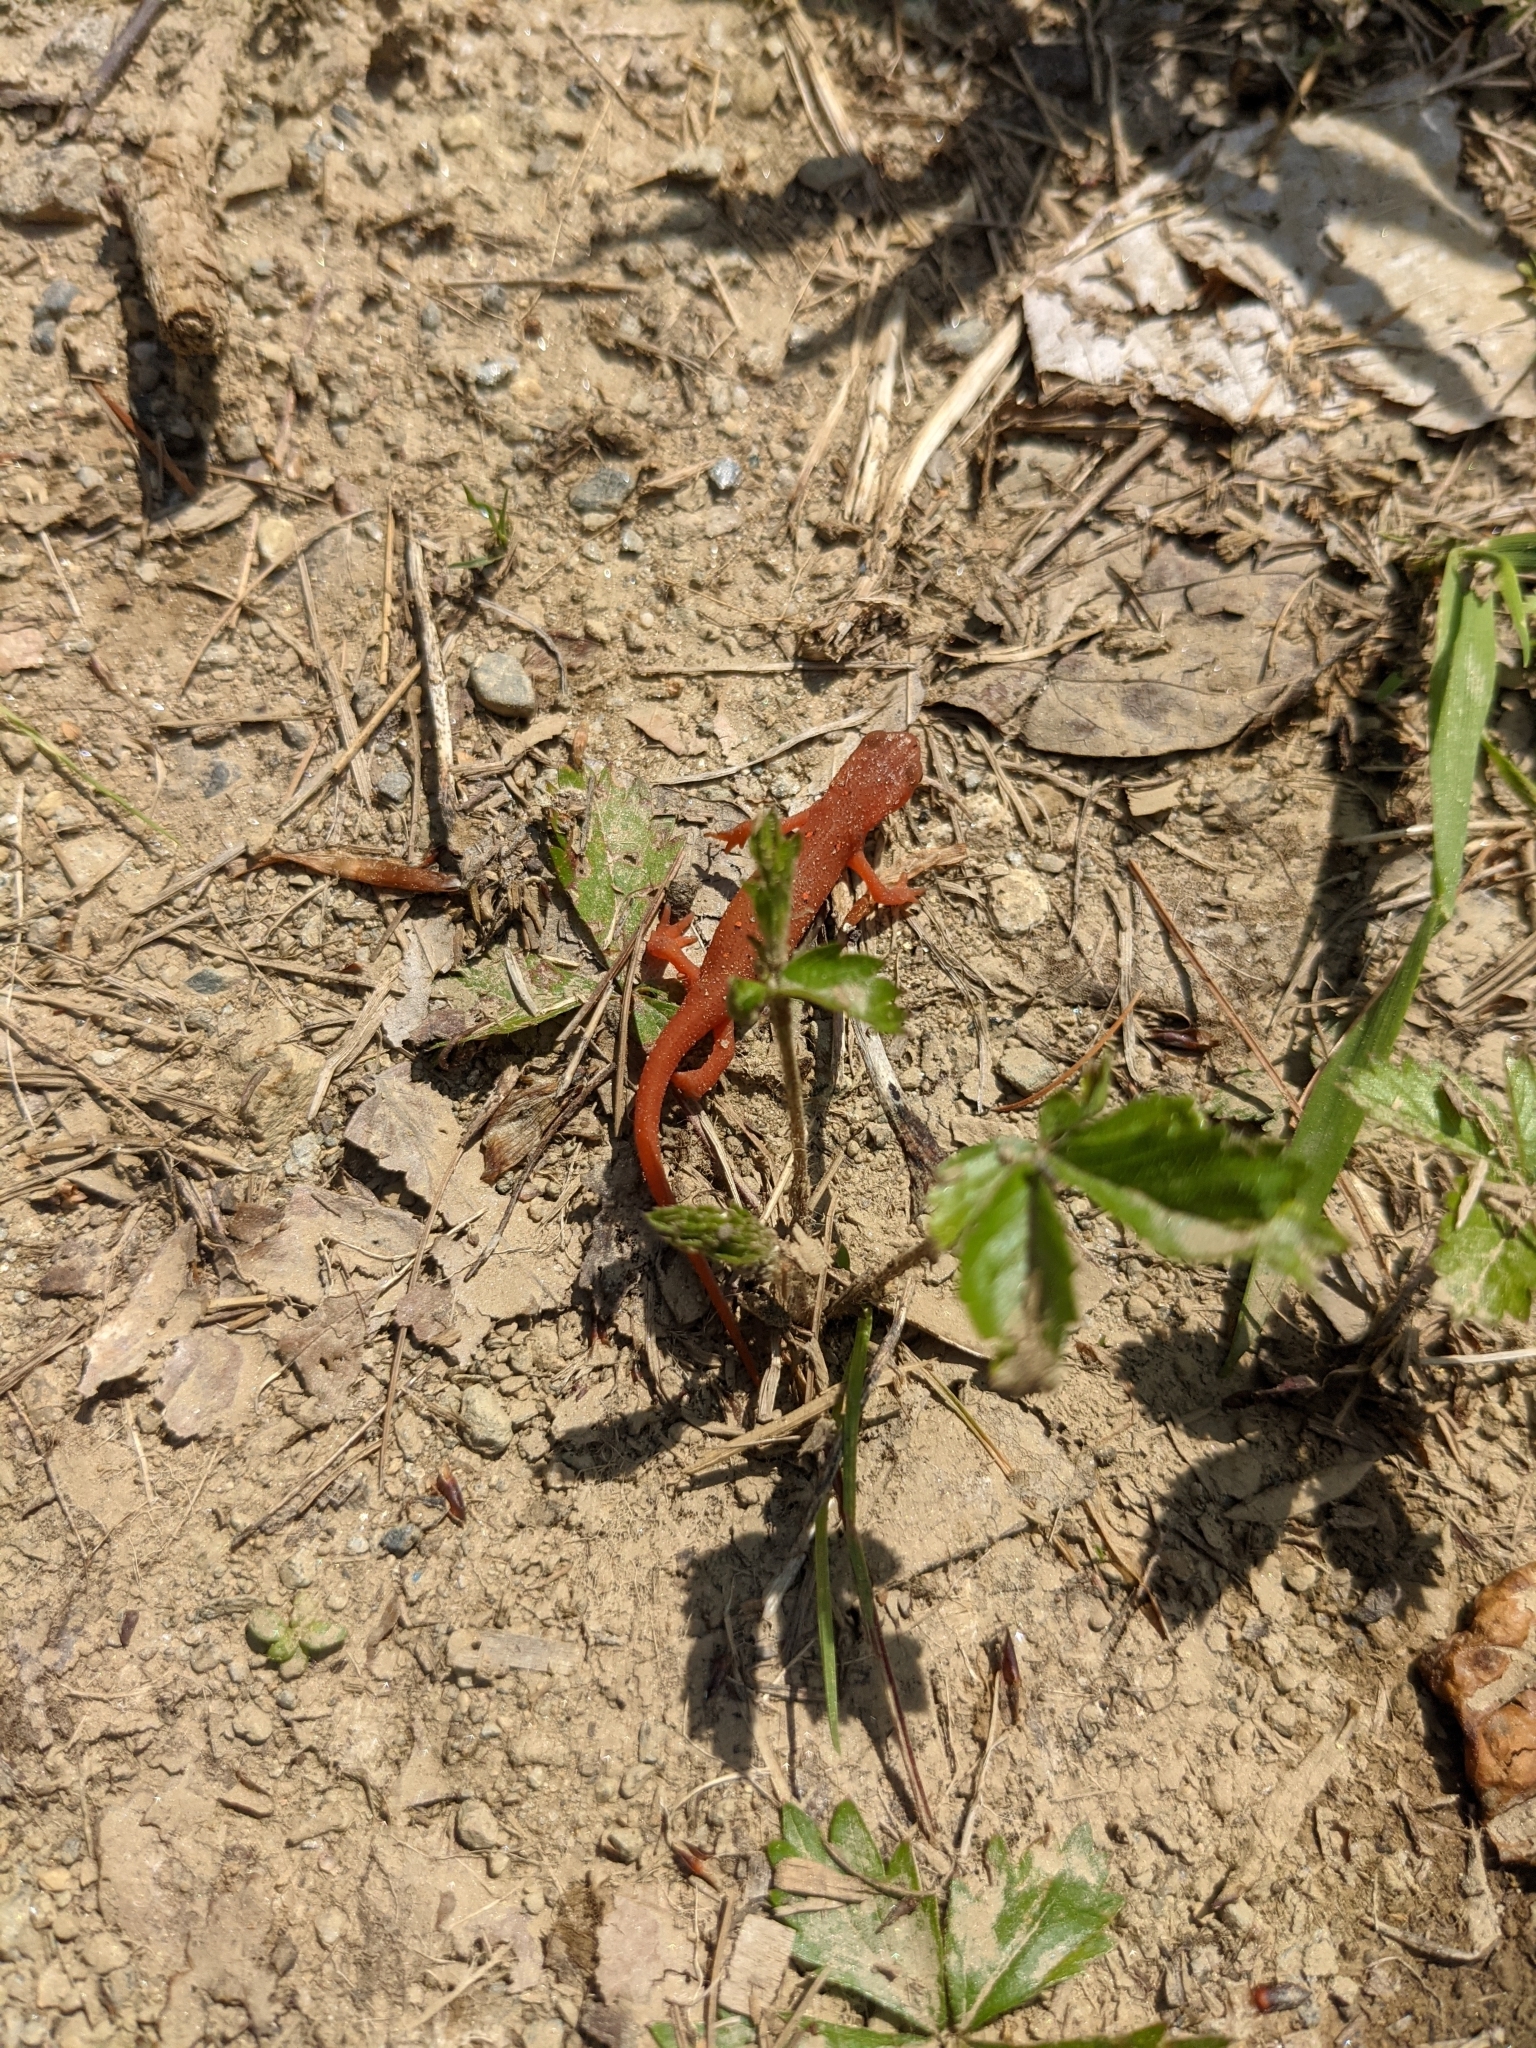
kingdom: Animalia
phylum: Chordata
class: Amphibia
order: Caudata
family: Salamandridae
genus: Notophthalmus
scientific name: Notophthalmus viridescens
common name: Eastern newt
